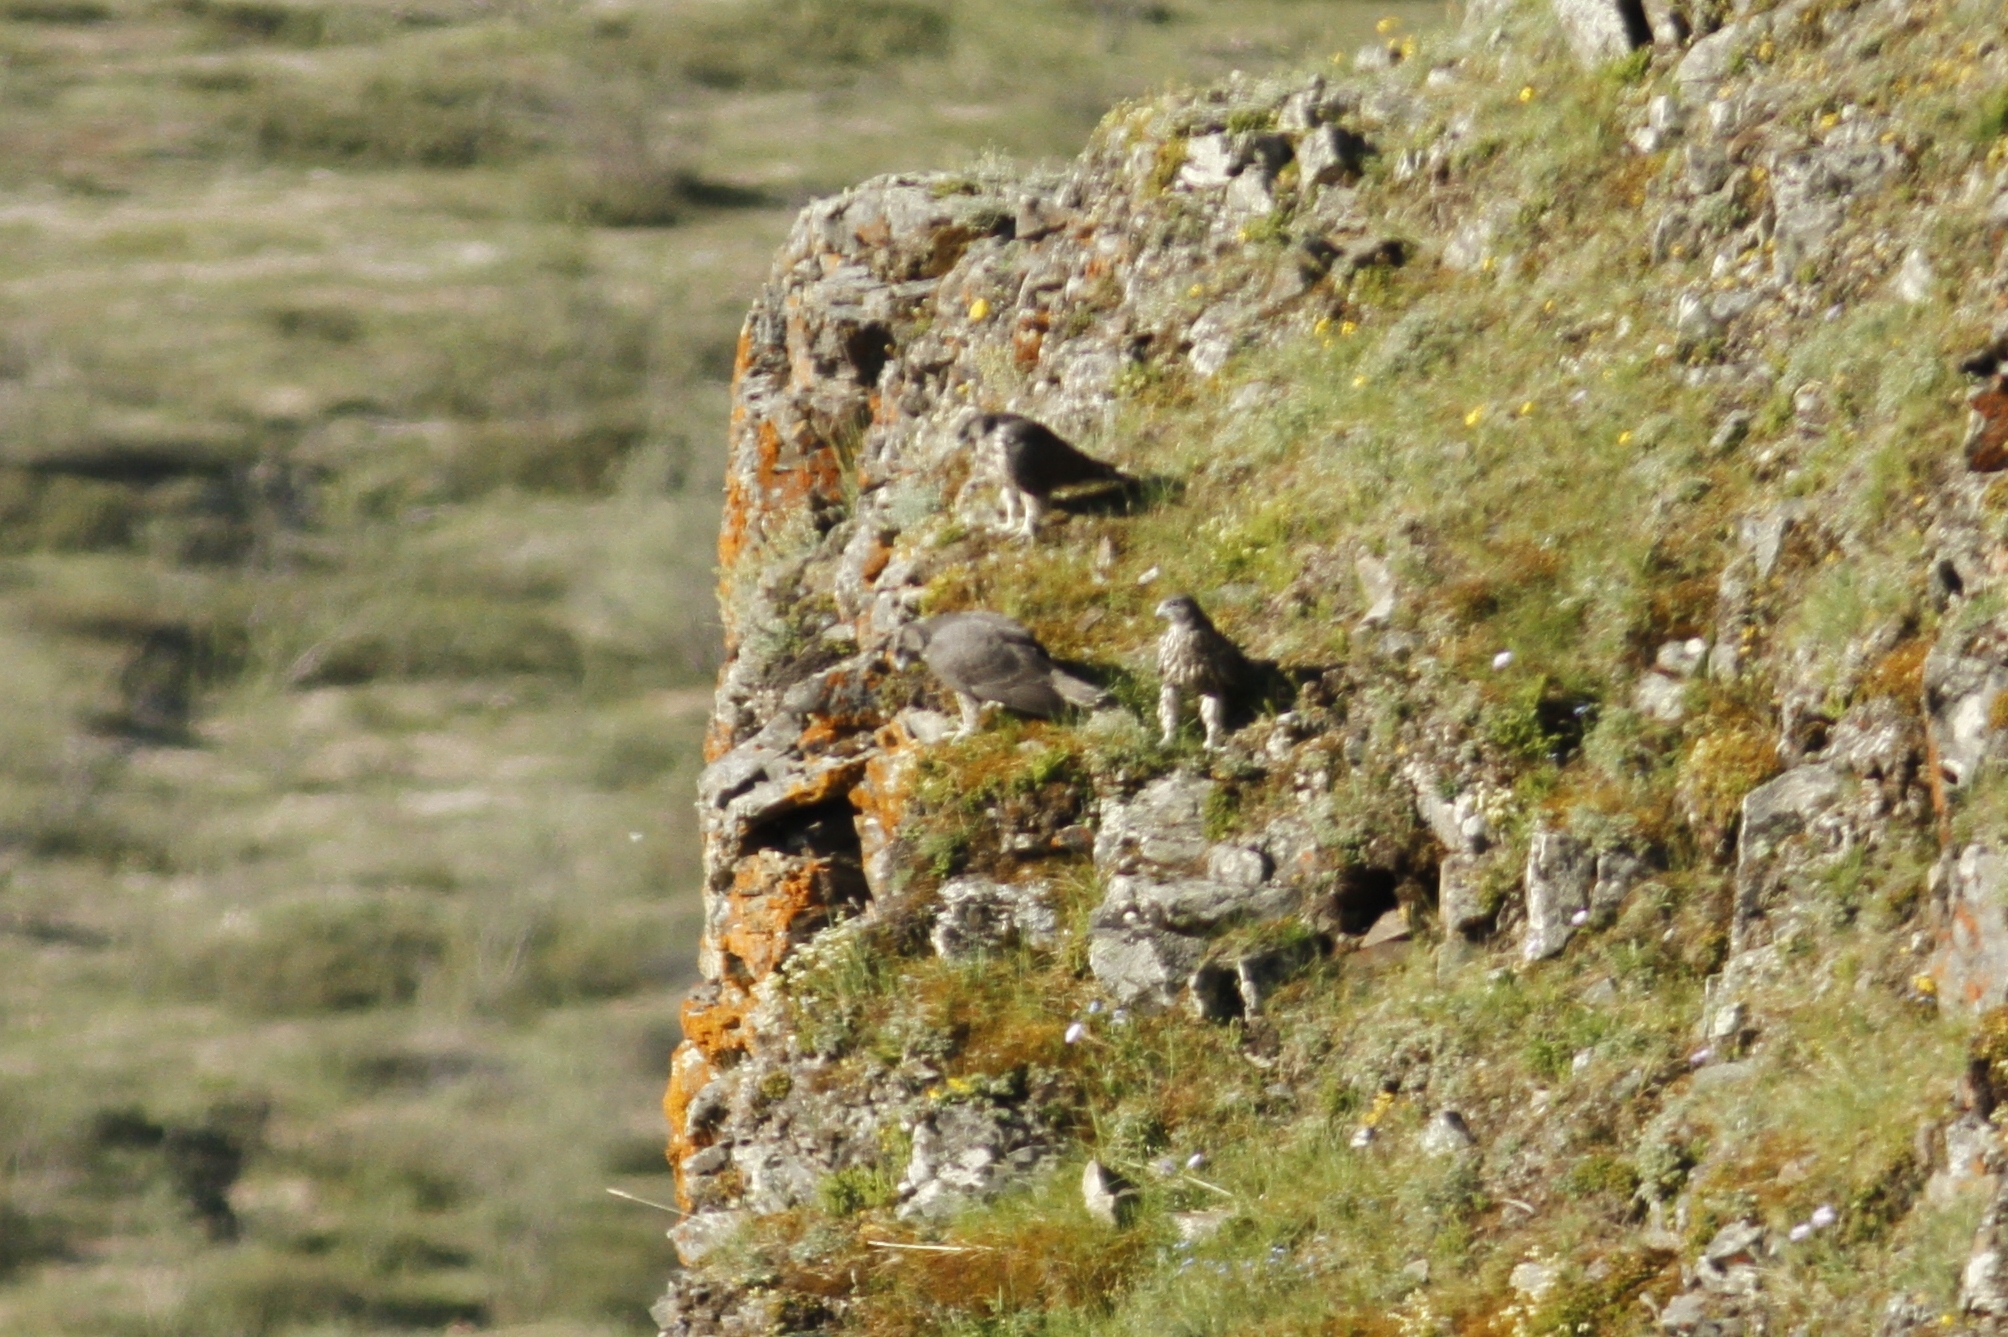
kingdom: Animalia
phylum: Chordata
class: Aves
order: Falconiformes
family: Falconidae
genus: Falco
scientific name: Falco rusticolus
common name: Gyrfalcon
